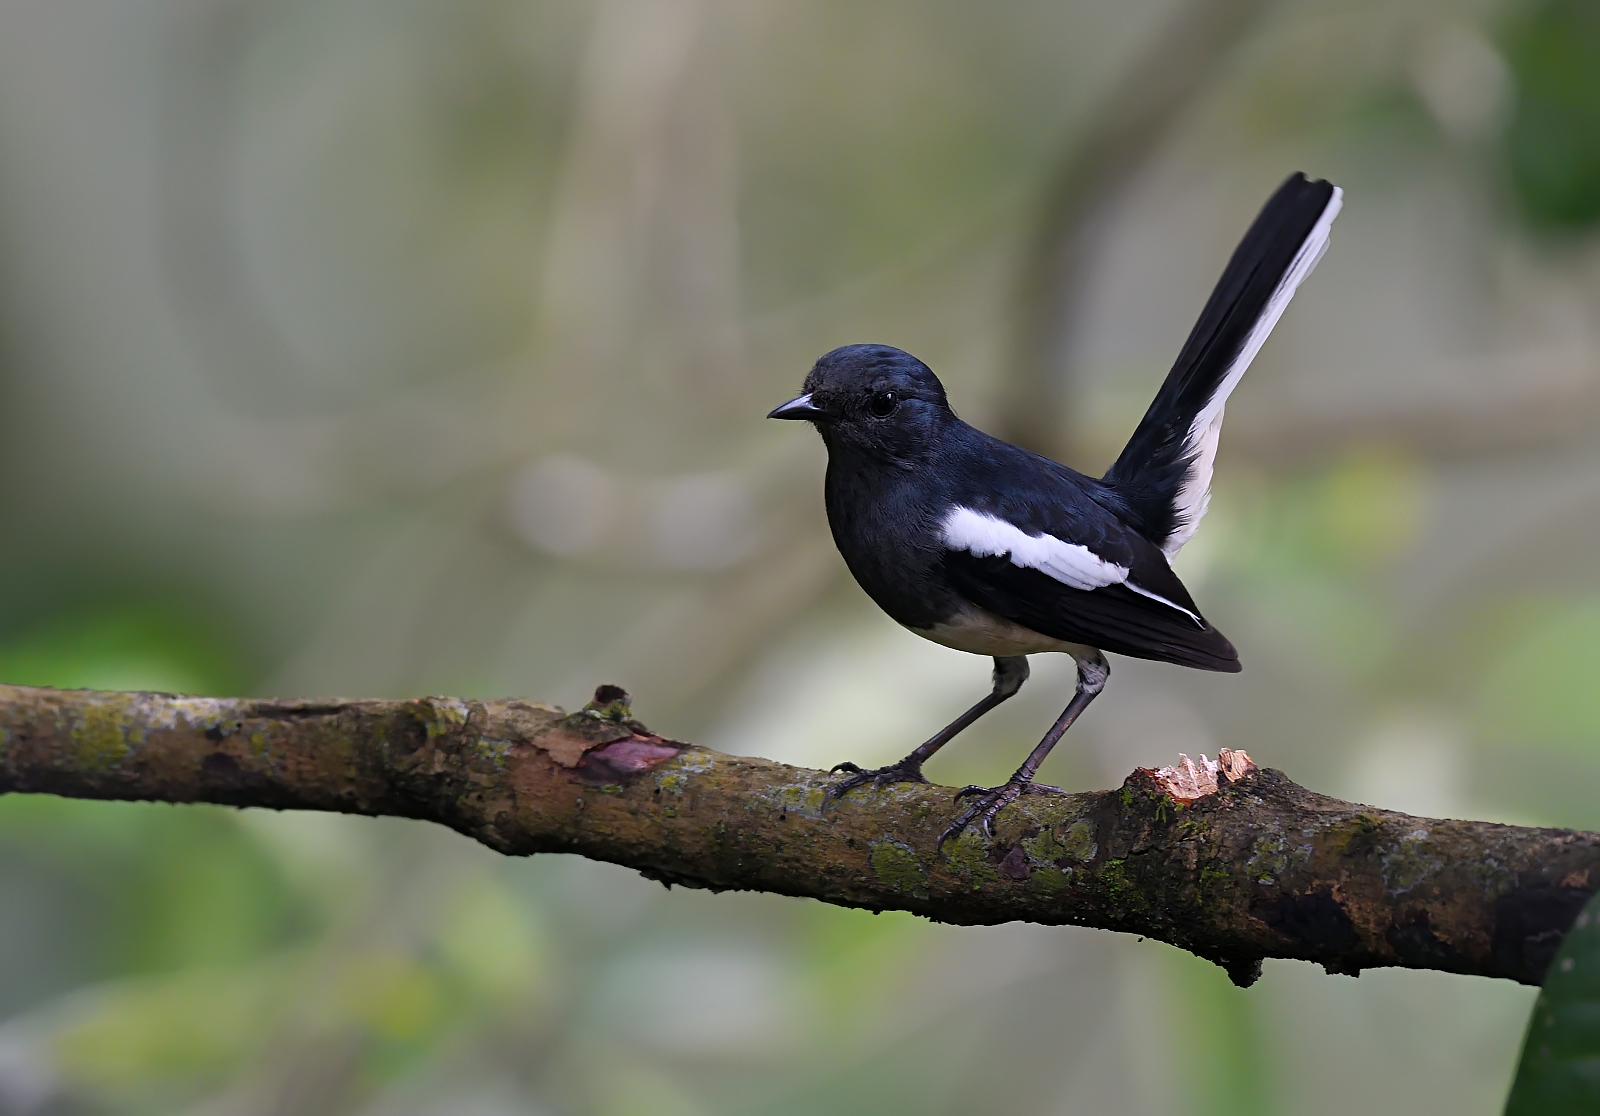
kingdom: Animalia
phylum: Chordata
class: Aves
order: Passeriformes
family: Muscicapidae
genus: Copsychus
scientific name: Copsychus saularis
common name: Oriental magpie-robin
